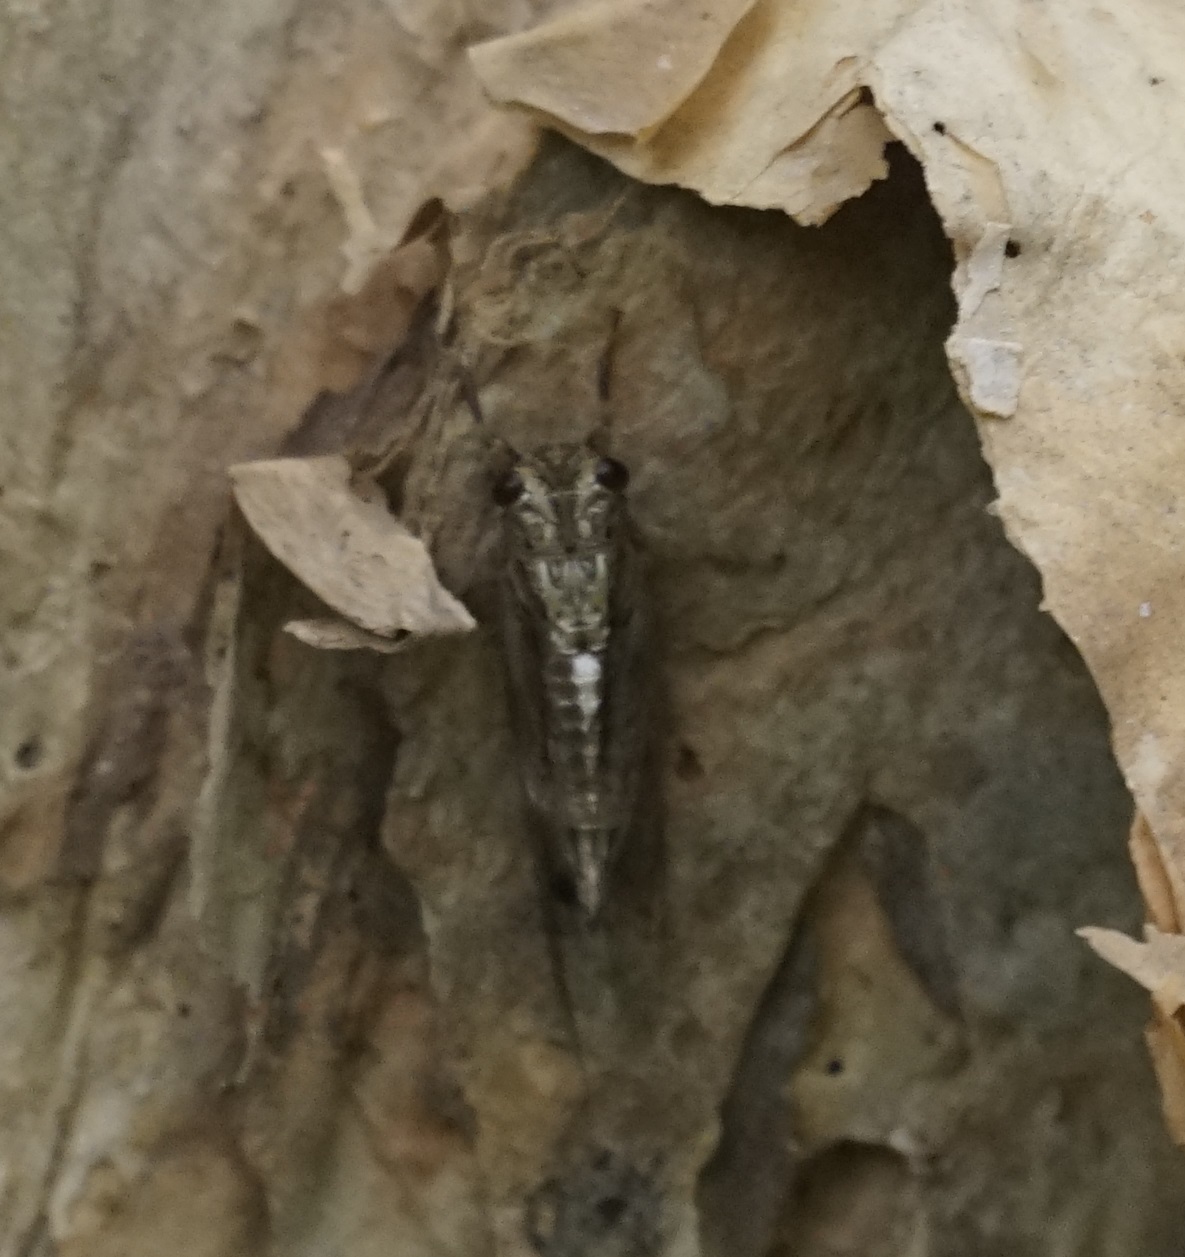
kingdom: Animalia
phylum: Arthropoda
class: Insecta
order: Hemiptera
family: Cicadidae
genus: Yoyetta
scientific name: Yoyetta celis
